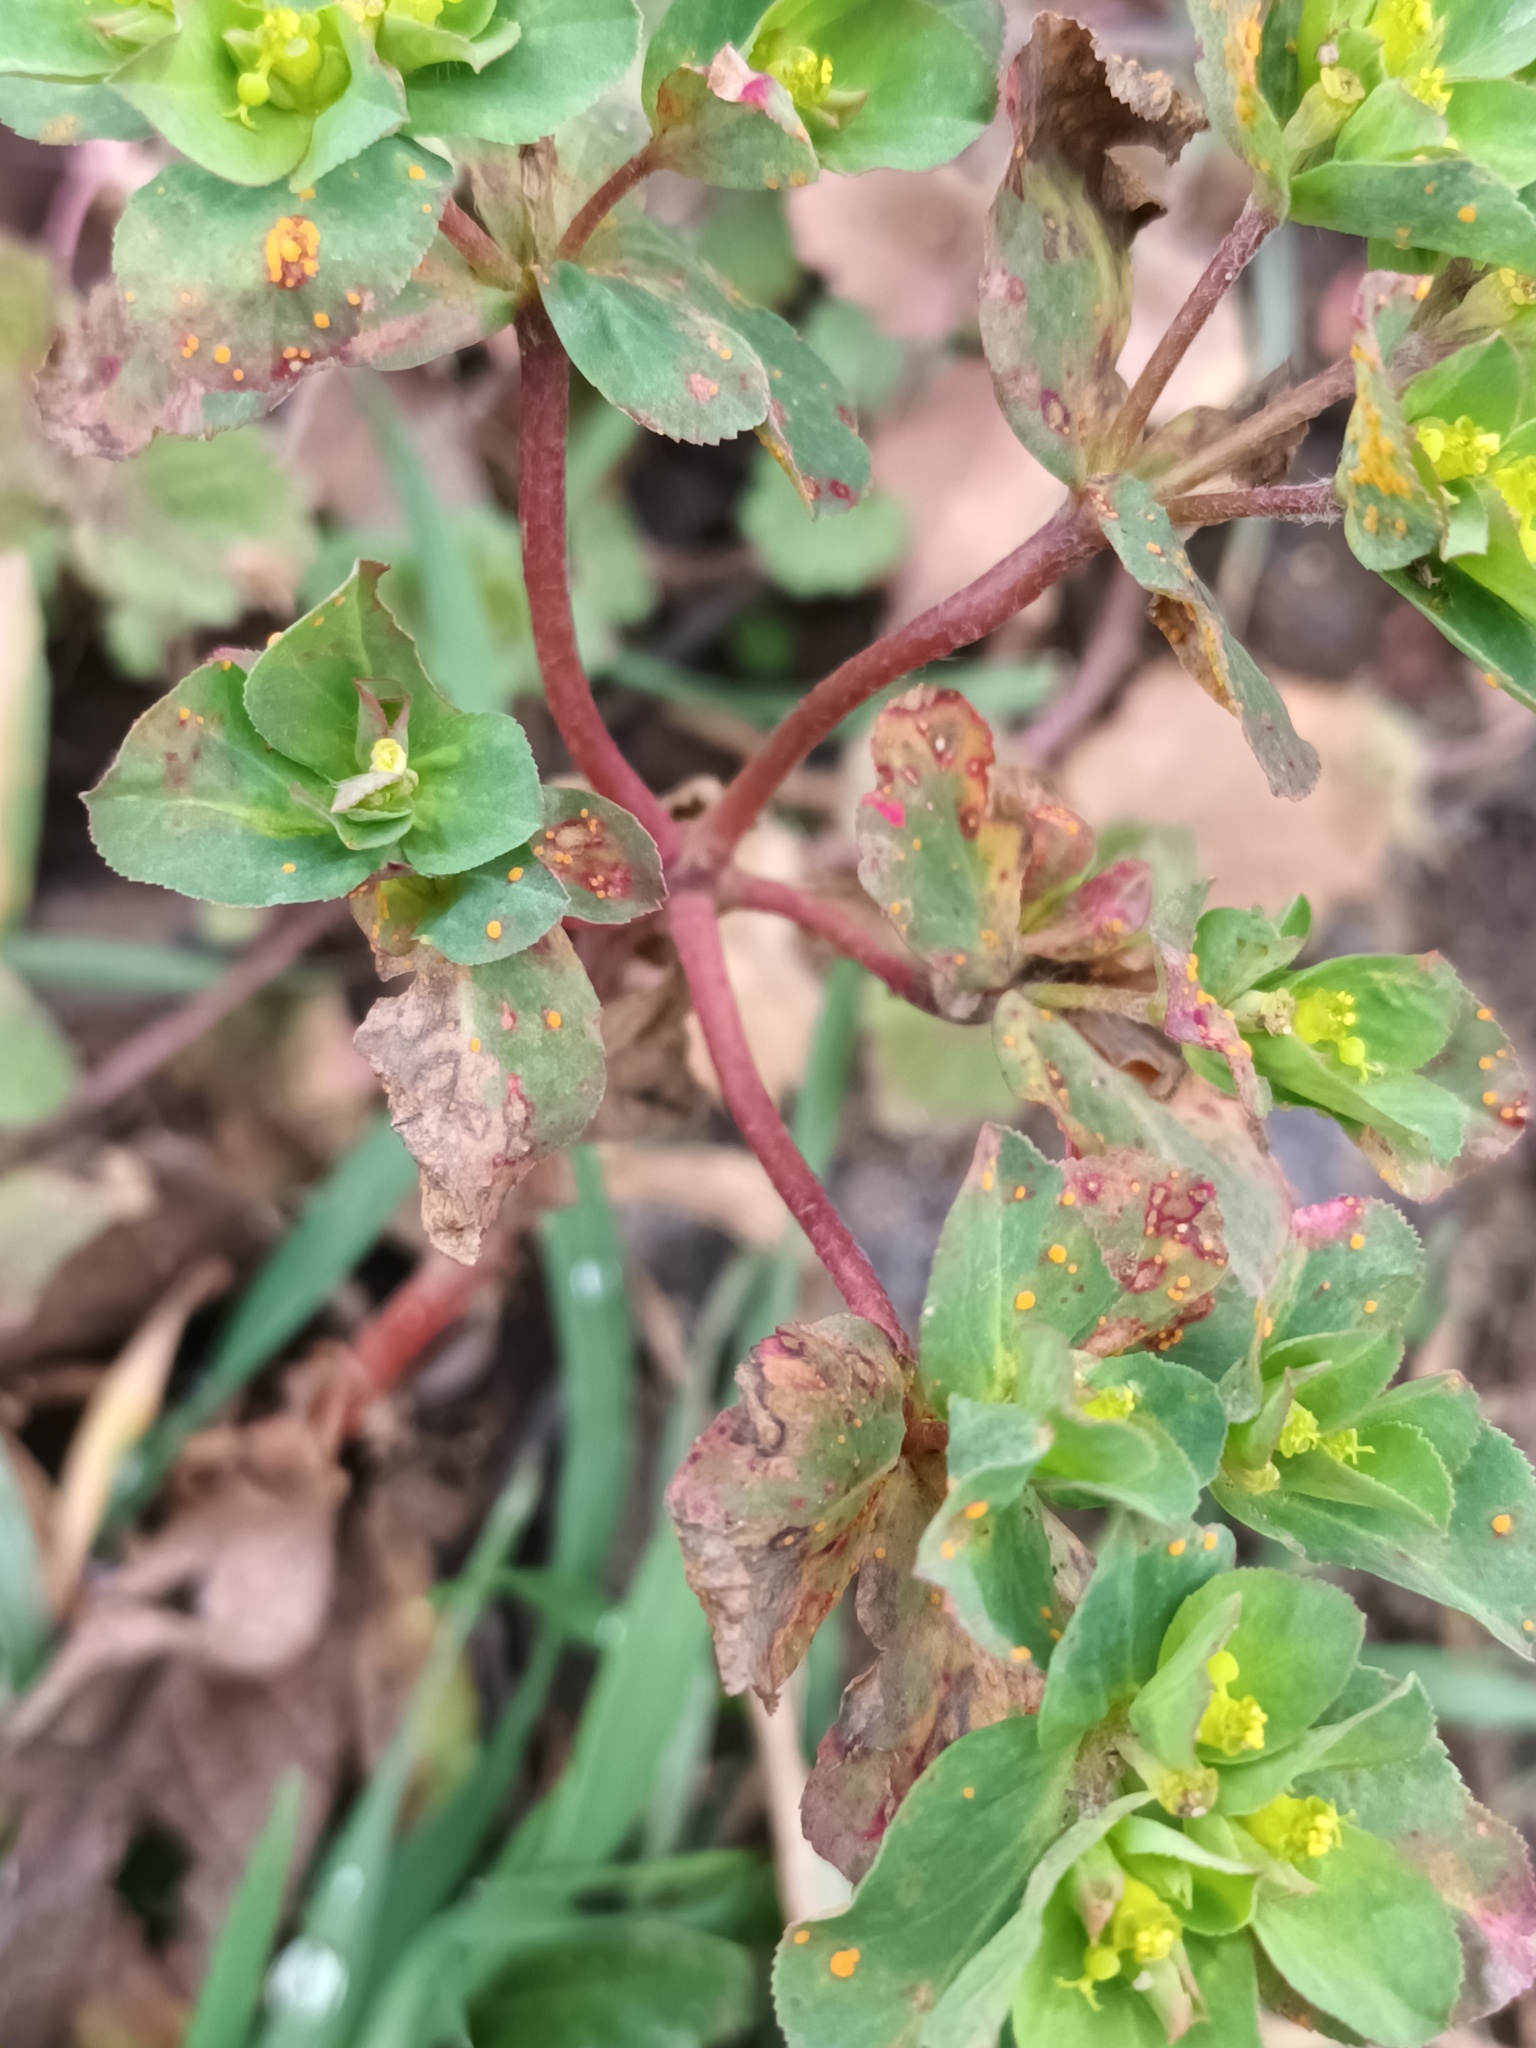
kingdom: Plantae
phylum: Tracheophyta
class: Magnoliopsida
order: Malpighiales
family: Euphorbiaceae
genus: Euphorbia
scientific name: Euphorbia helioscopia
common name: Sun spurge
